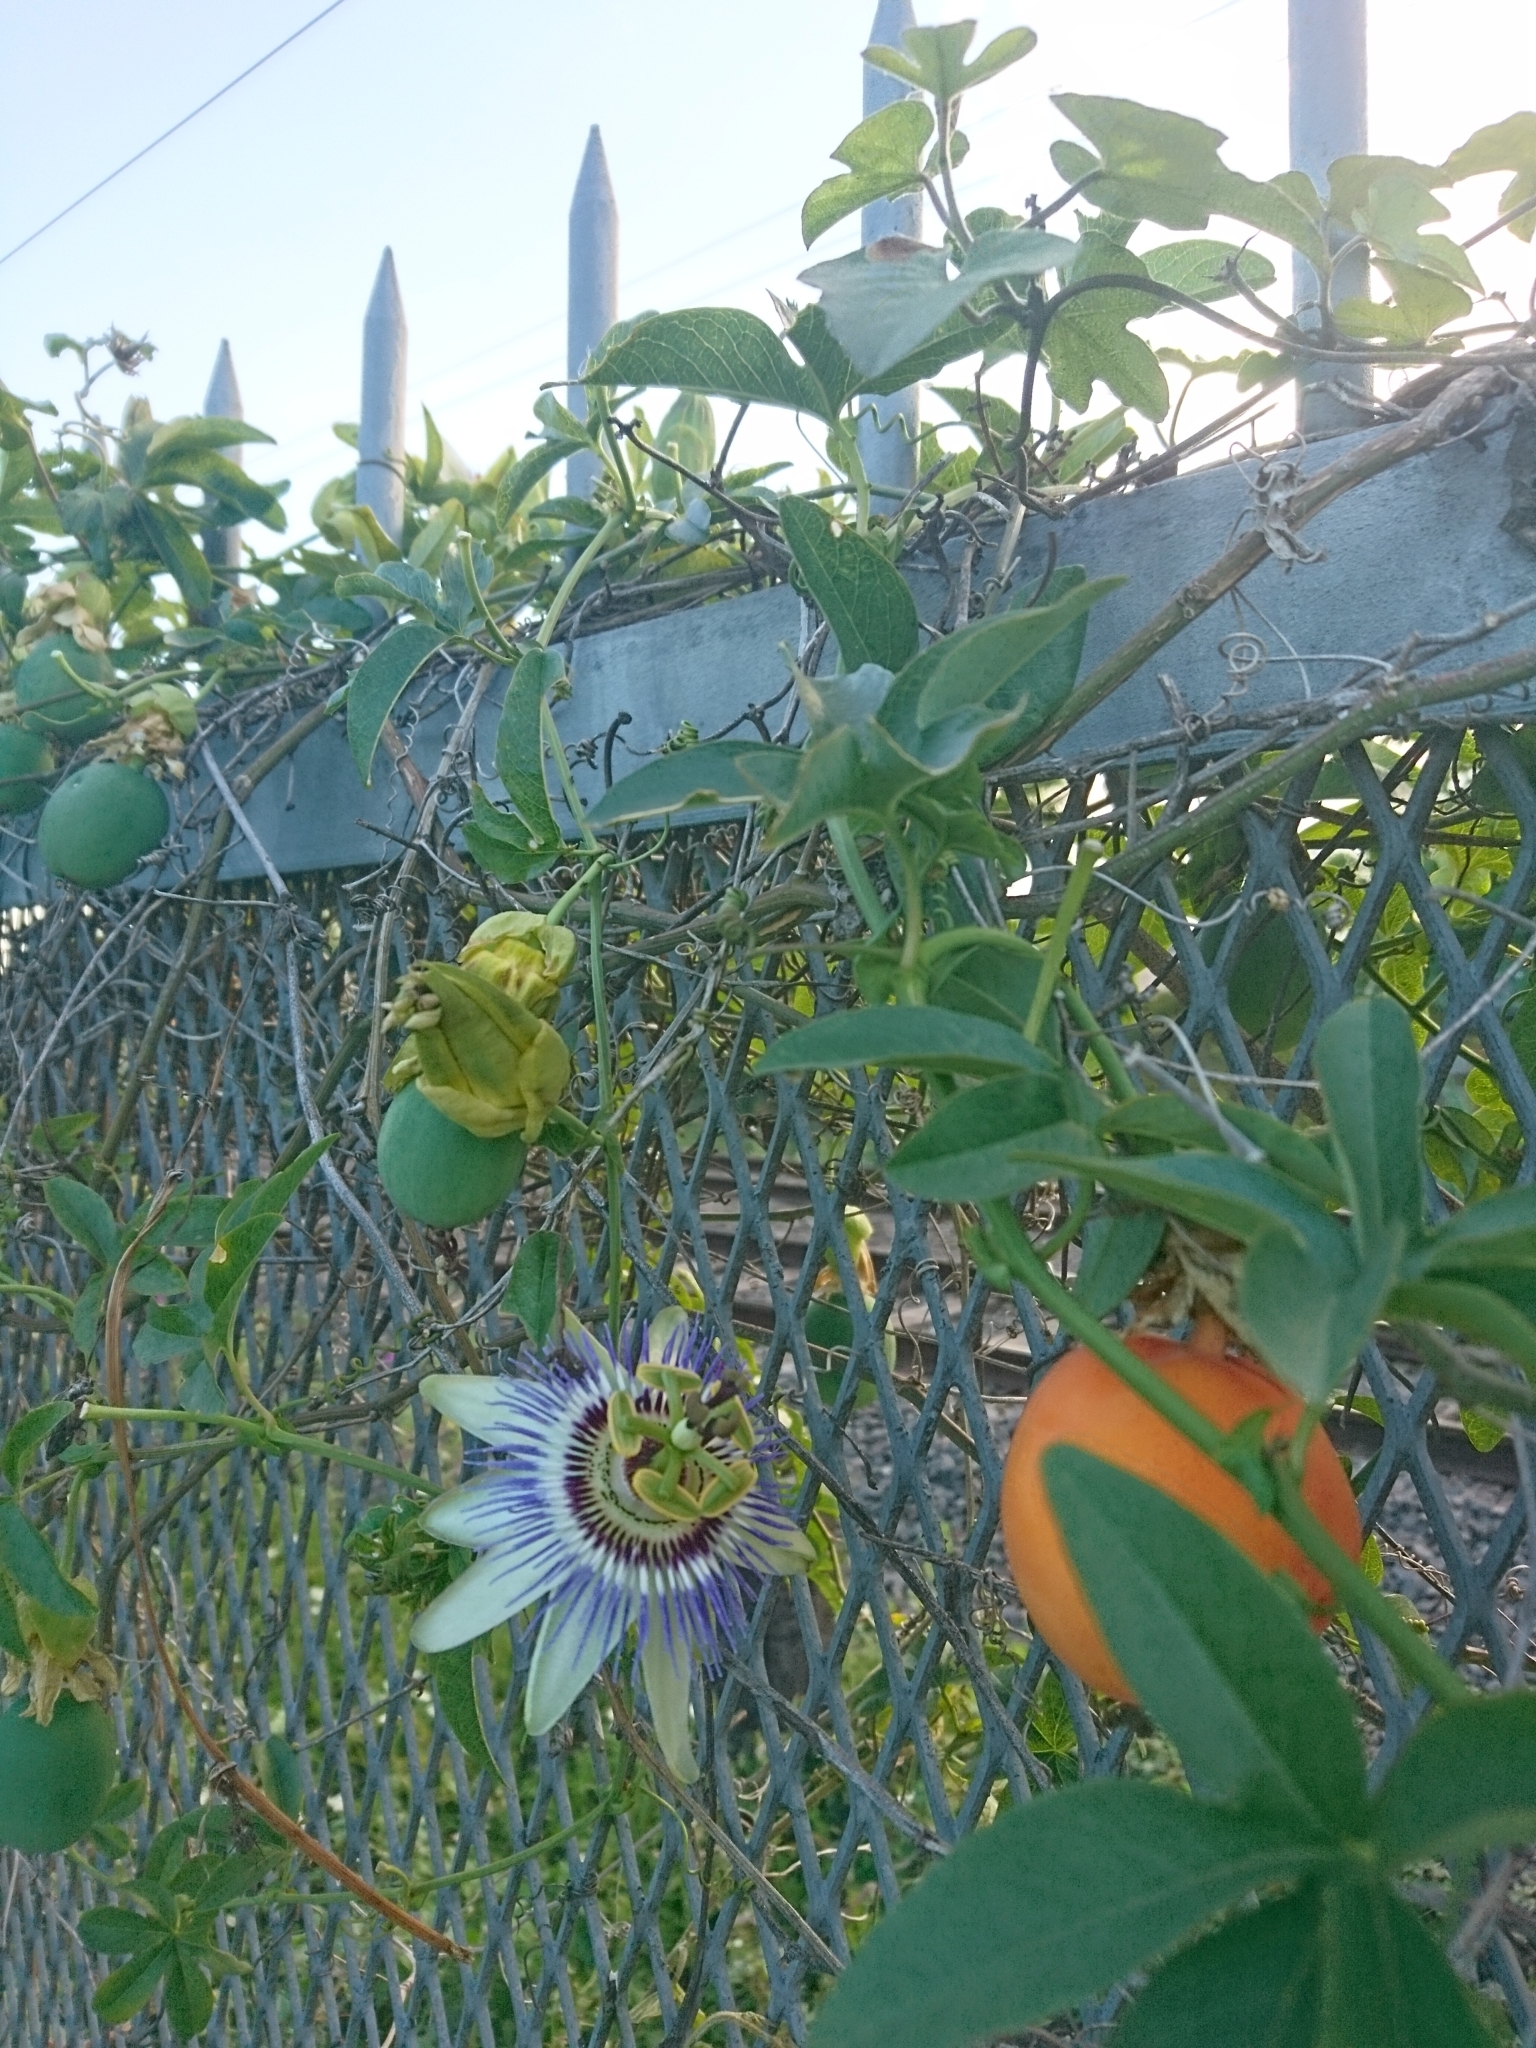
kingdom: Plantae
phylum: Tracheophyta
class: Magnoliopsida
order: Malpighiales
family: Passifloraceae
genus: Passiflora
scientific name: Passiflora caerulea
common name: Blue passionflower
